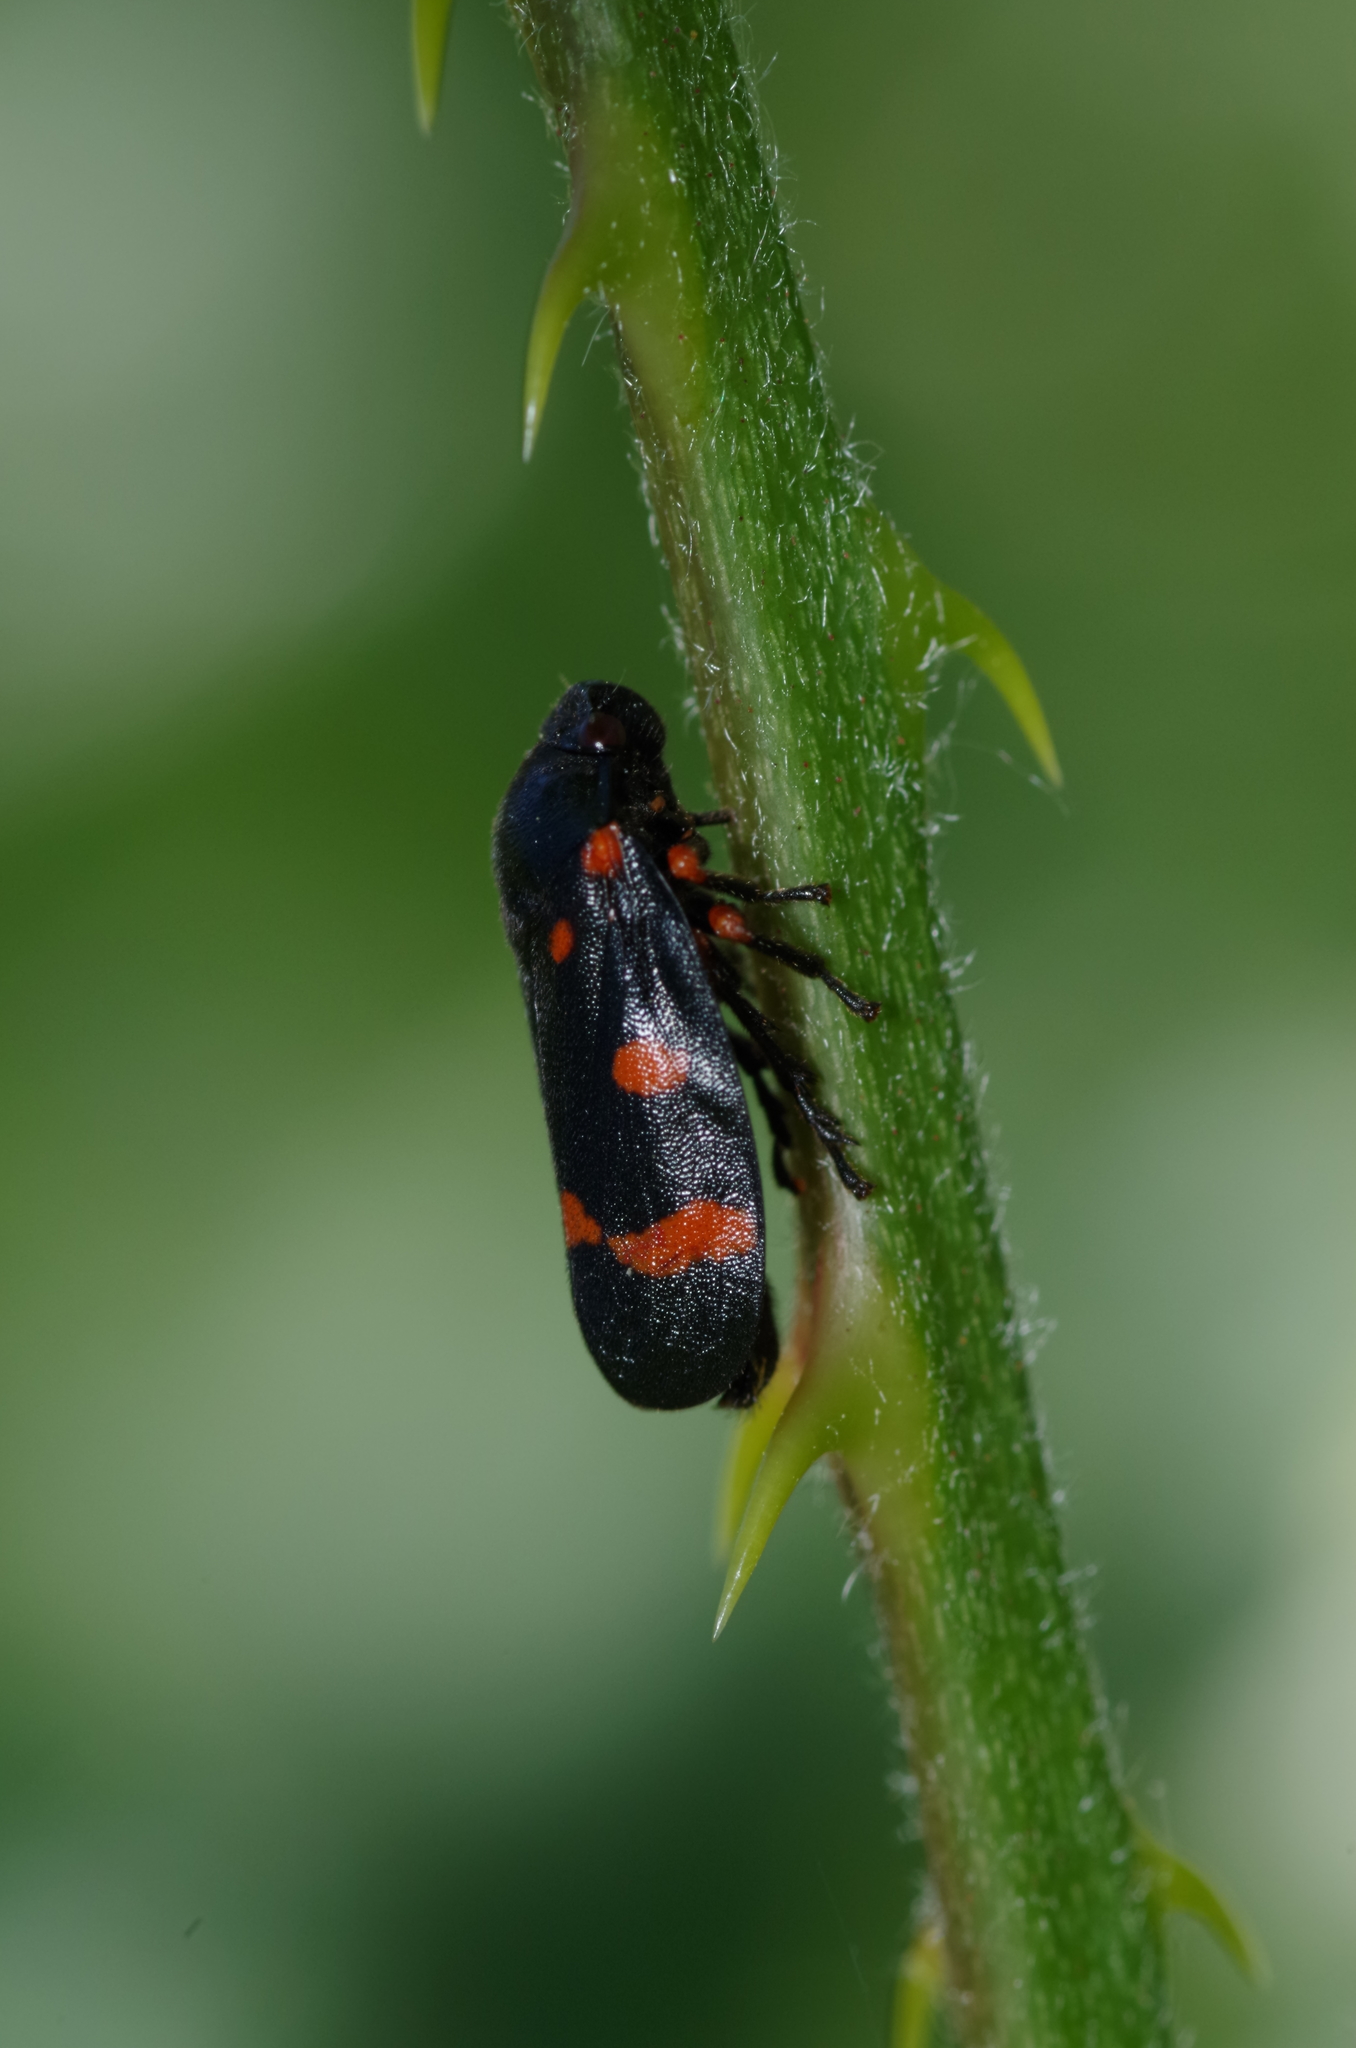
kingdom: Animalia
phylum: Arthropoda
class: Insecta
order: Hemiptera
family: Cercopidae
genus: Cercopis
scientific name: Cercopis intermedia
